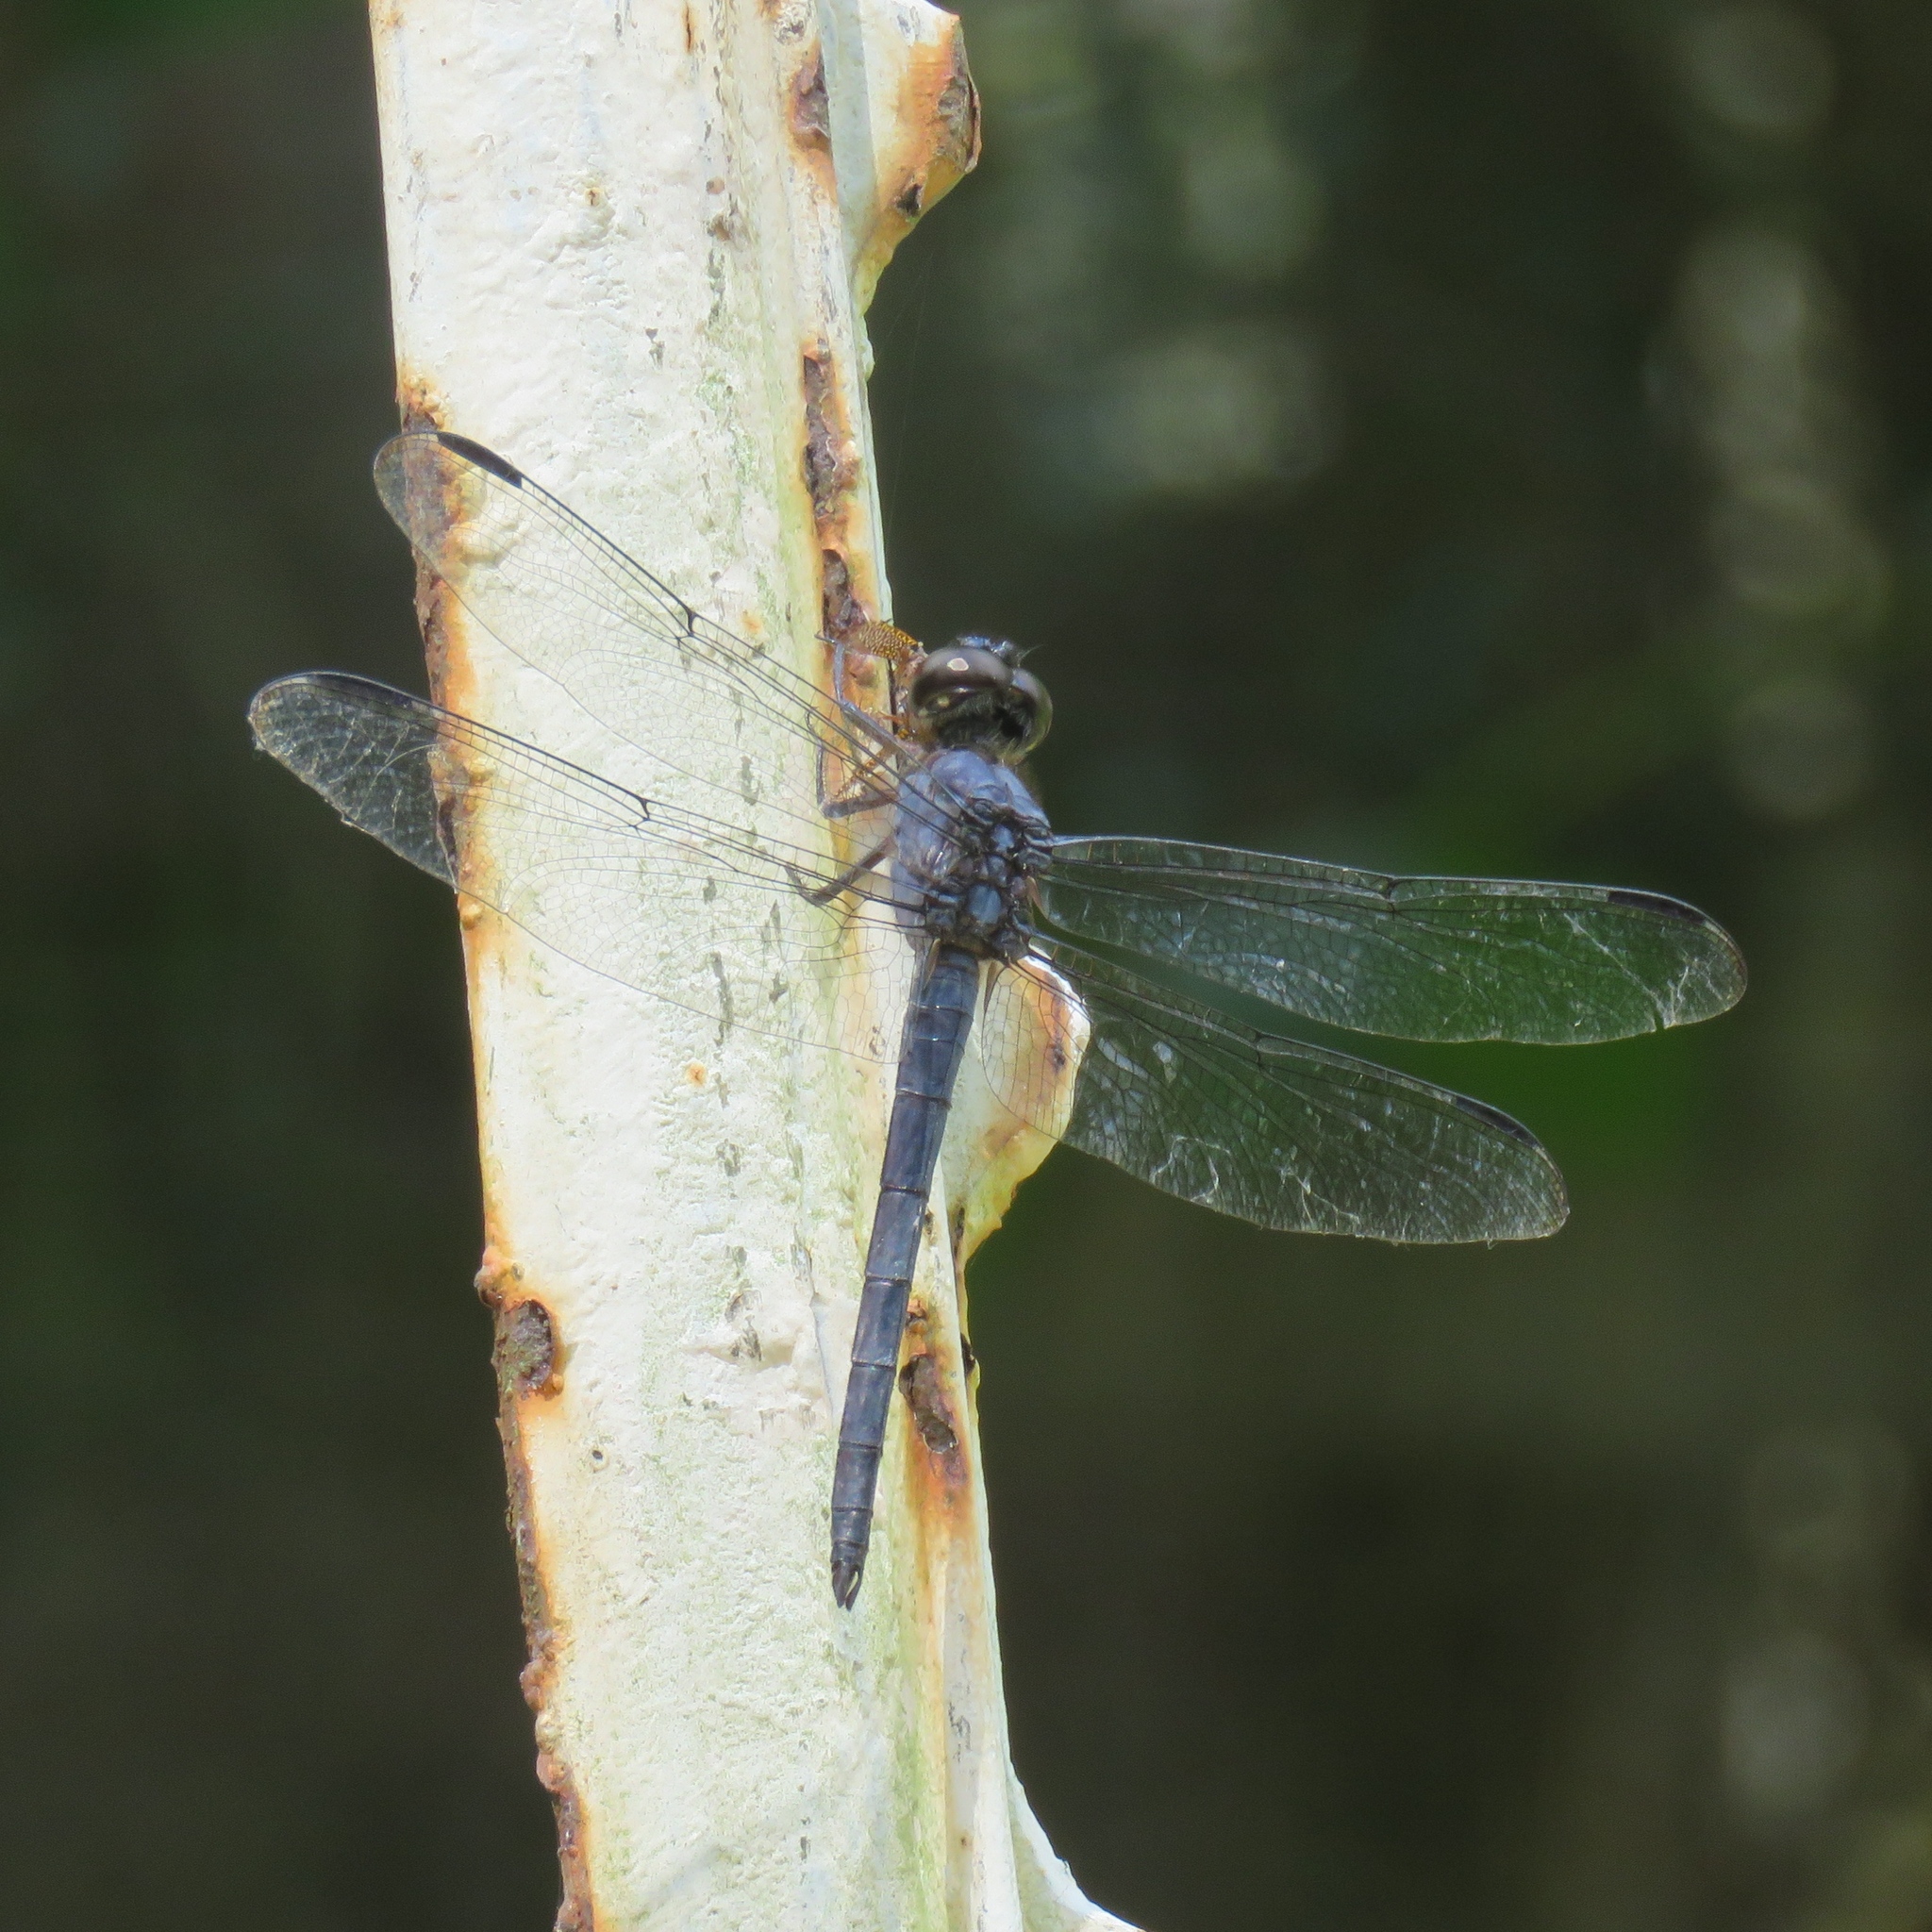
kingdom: Animalia
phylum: Arthropoda
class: Insecta
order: Odonata
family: Libellulidae
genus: Libellula
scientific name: Libellula incesta
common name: Slaty skimmer
